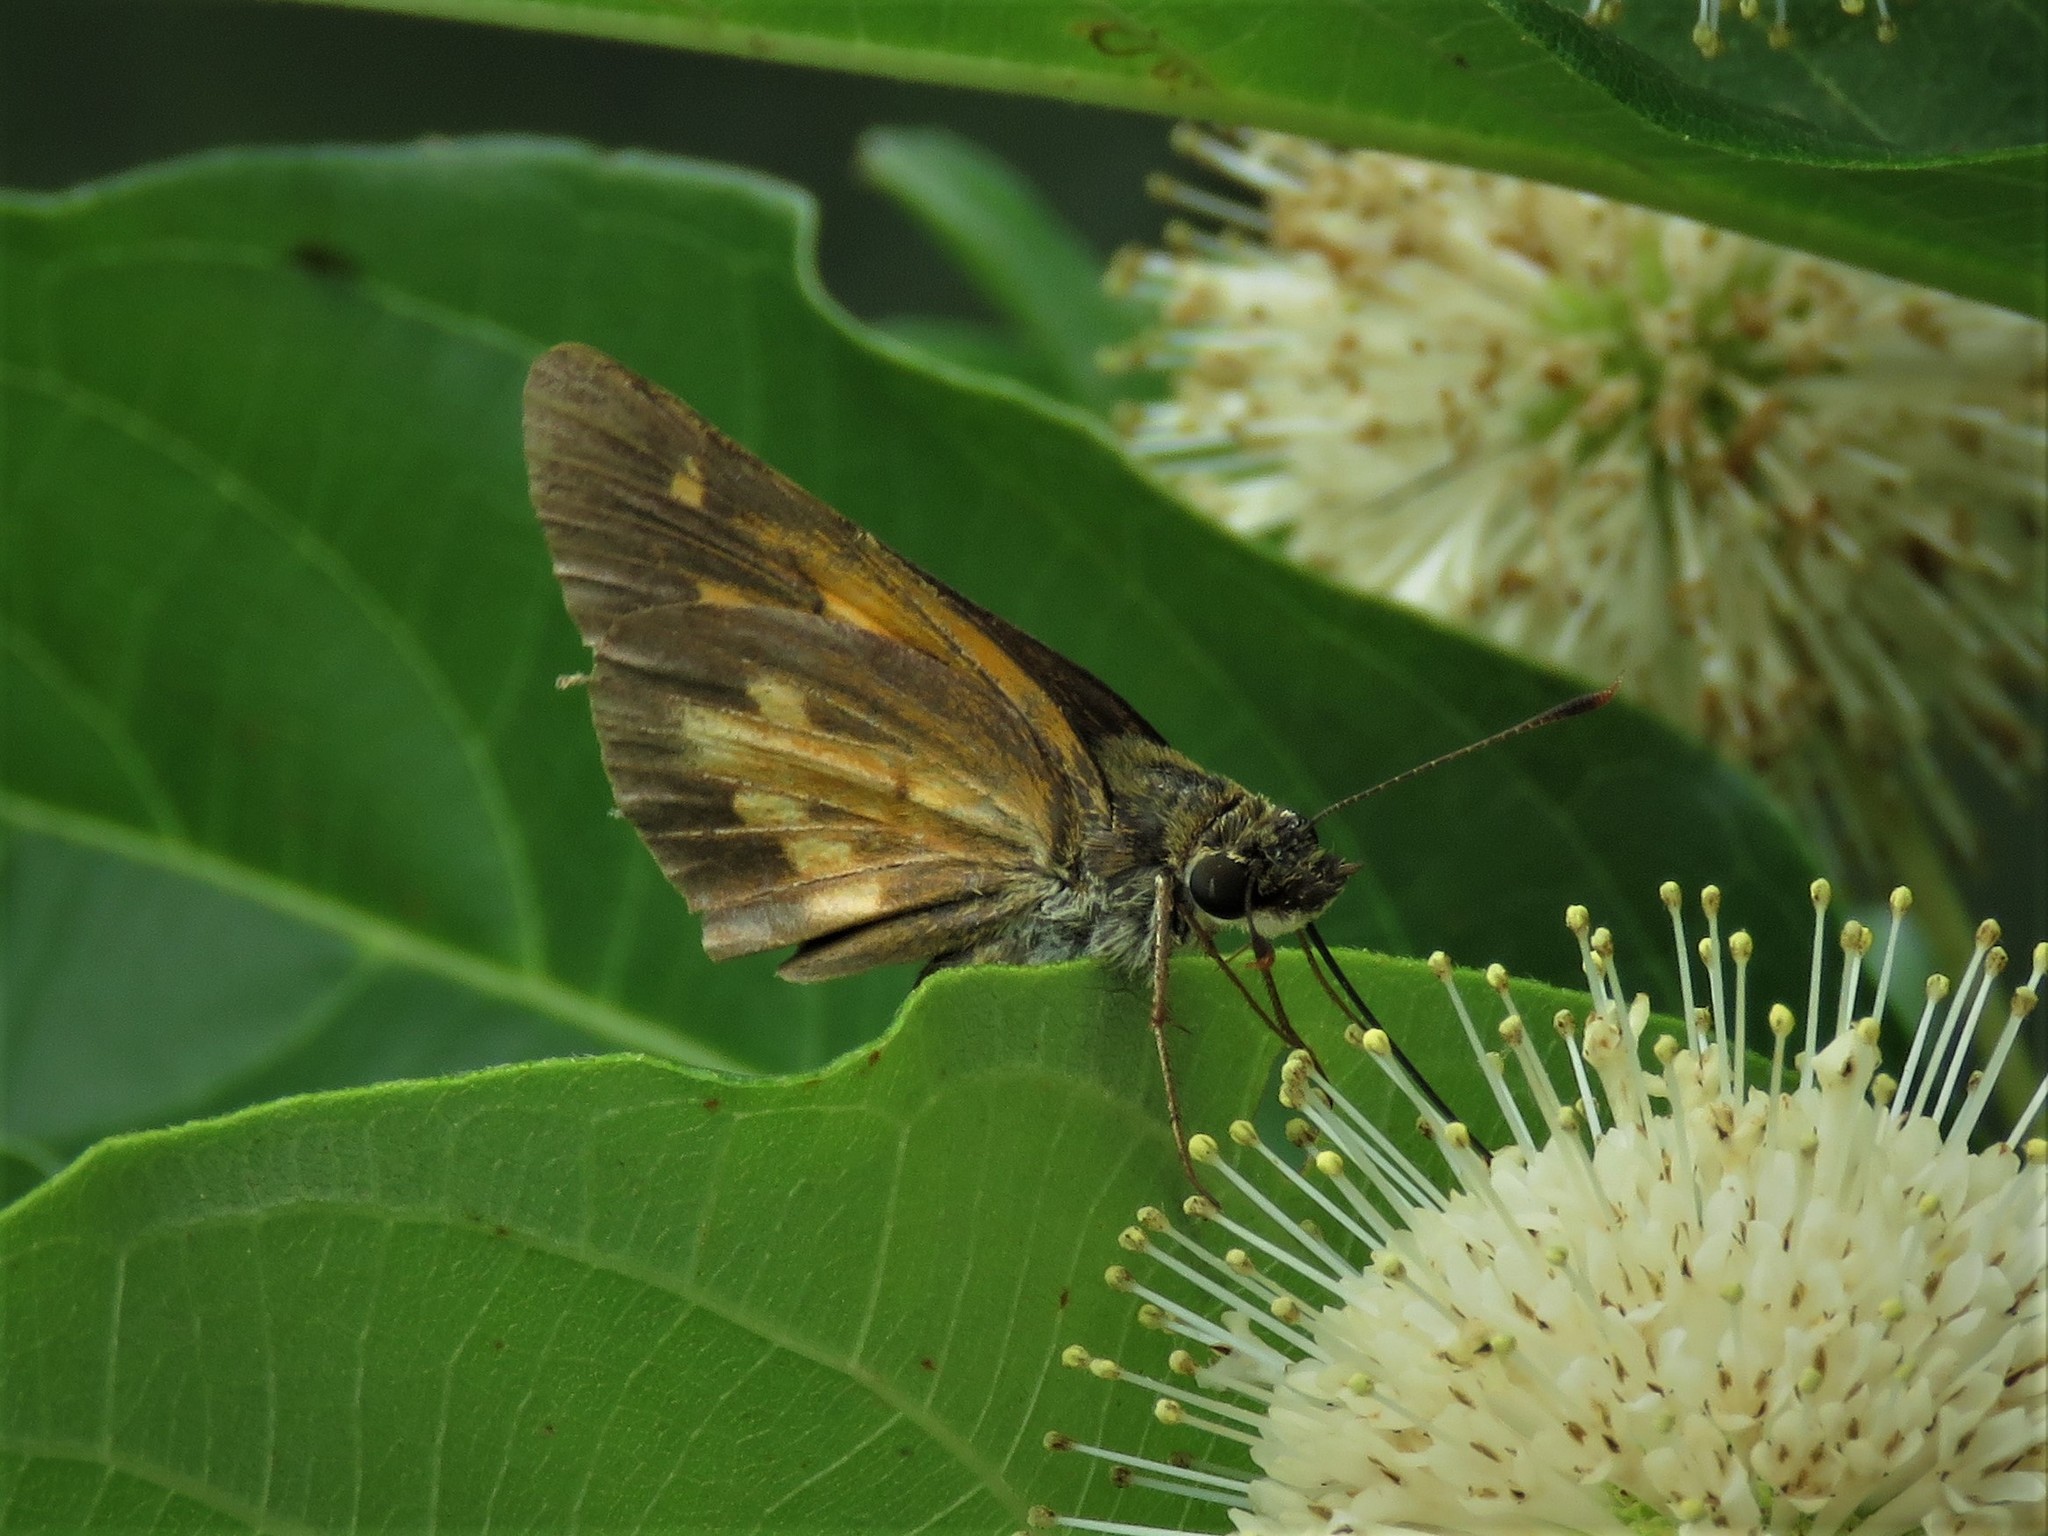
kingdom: Animalia
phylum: Arthropoda
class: Insecta
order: Lepidoptera
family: Hesperiidae
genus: Poanes
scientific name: Poanes viator
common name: Broad-winged skipper
